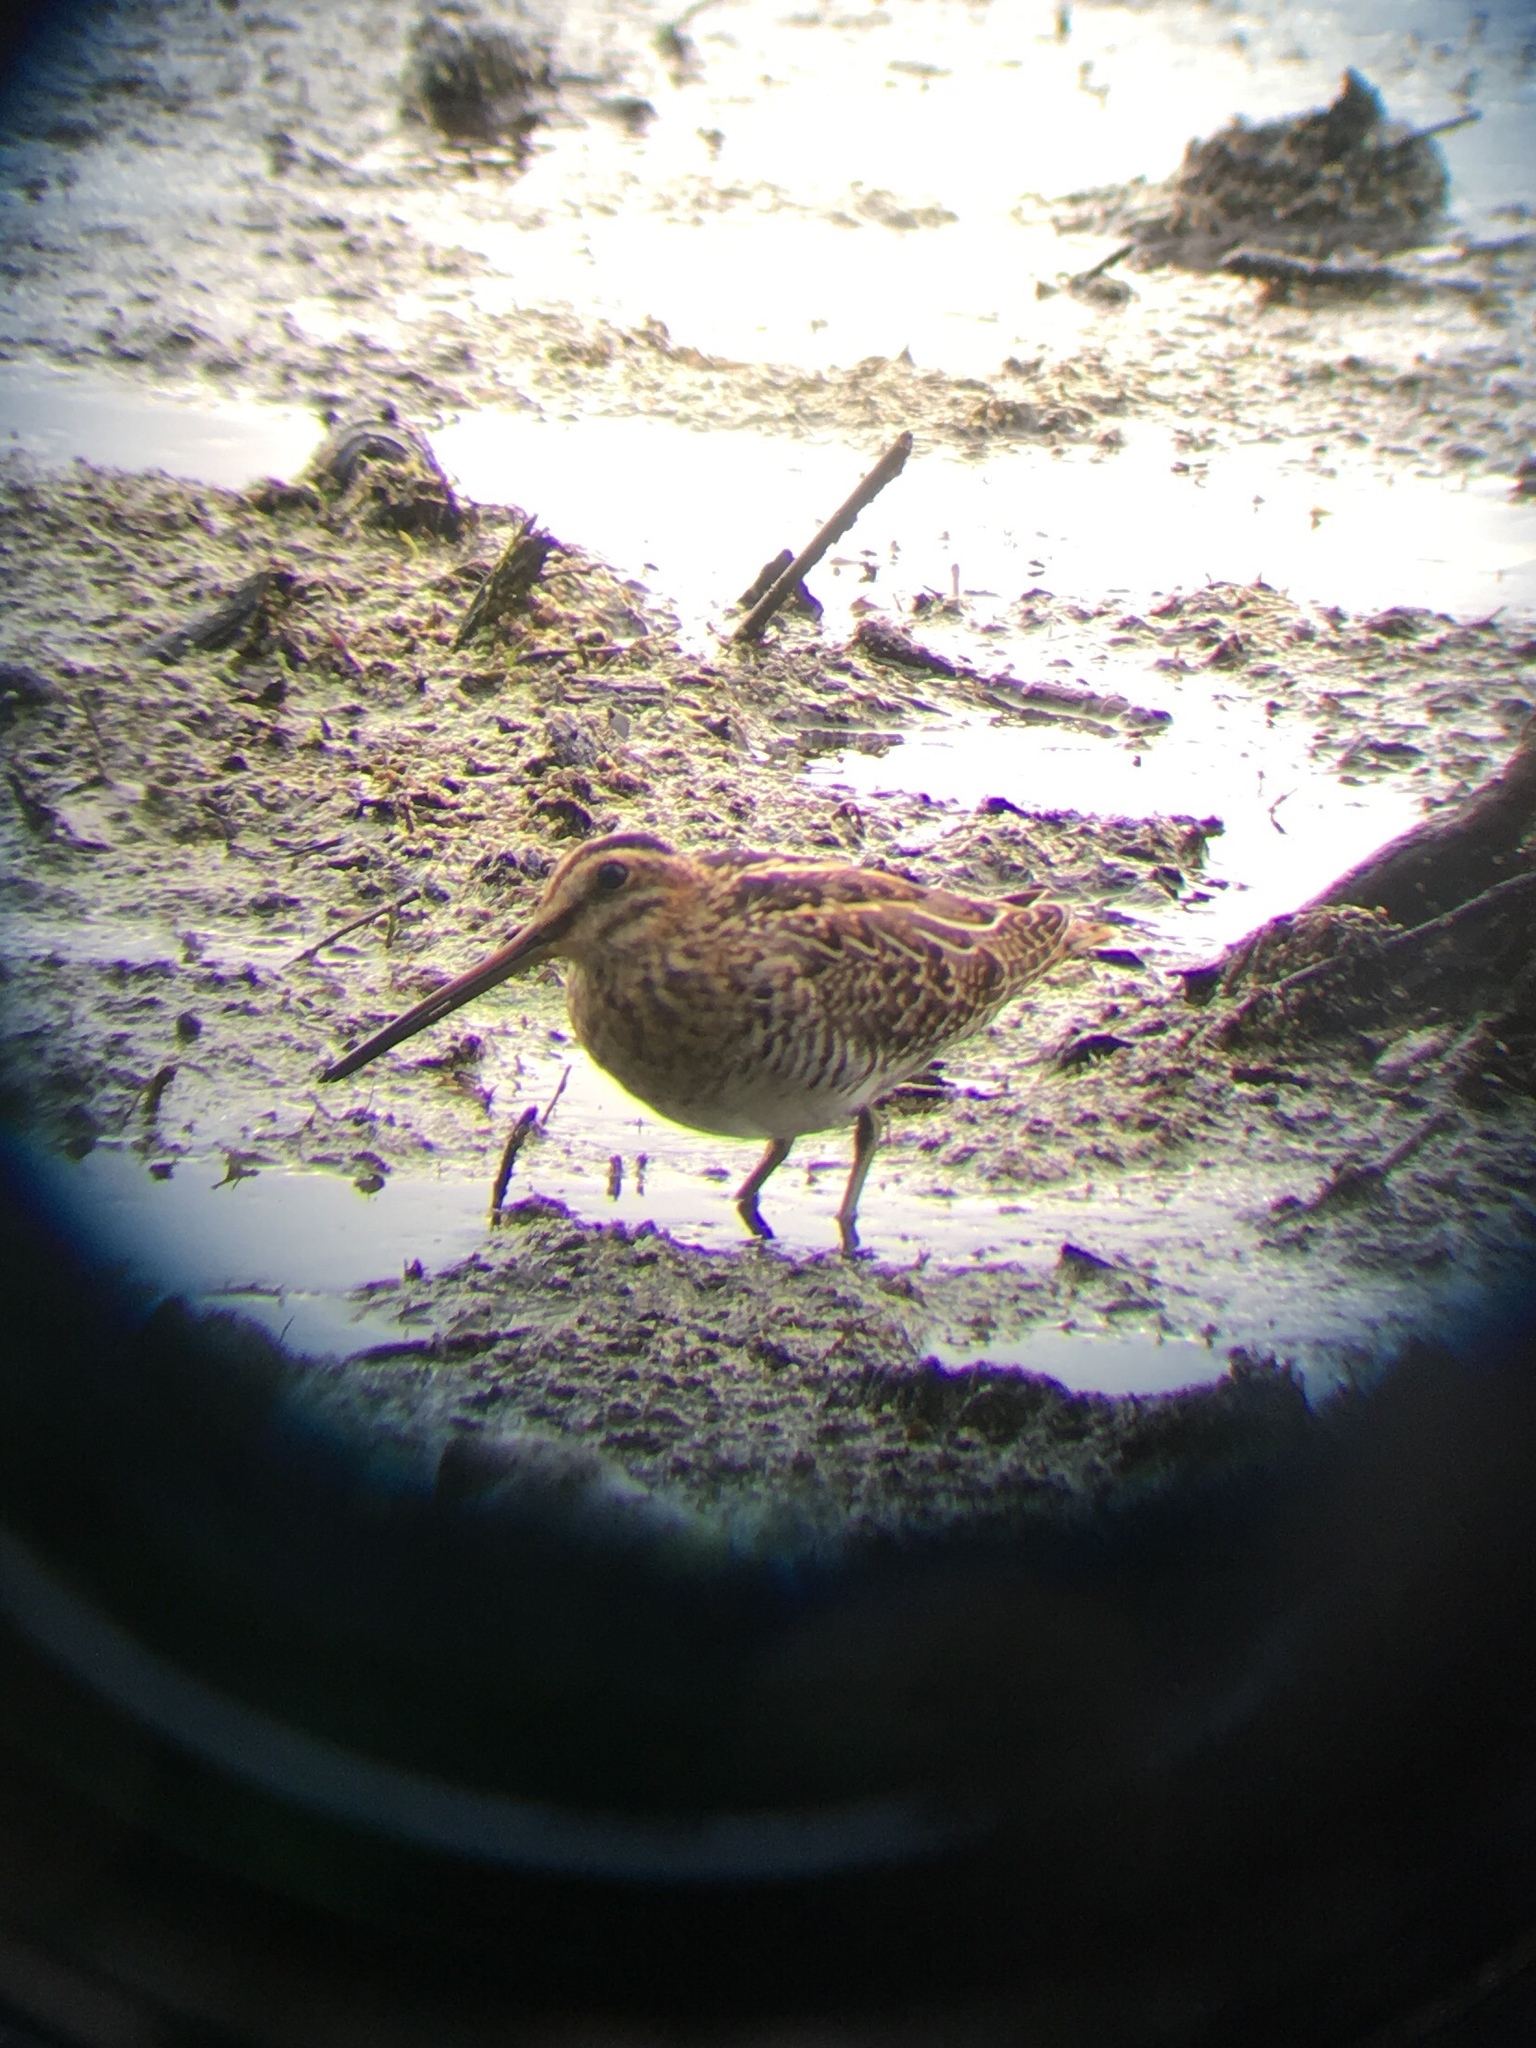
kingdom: Animalia
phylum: Chordata
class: Aves
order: Charadriiformes
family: Scolopacidae
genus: Gallinago
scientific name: Gallinago delicata
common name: Wilson's snipe
